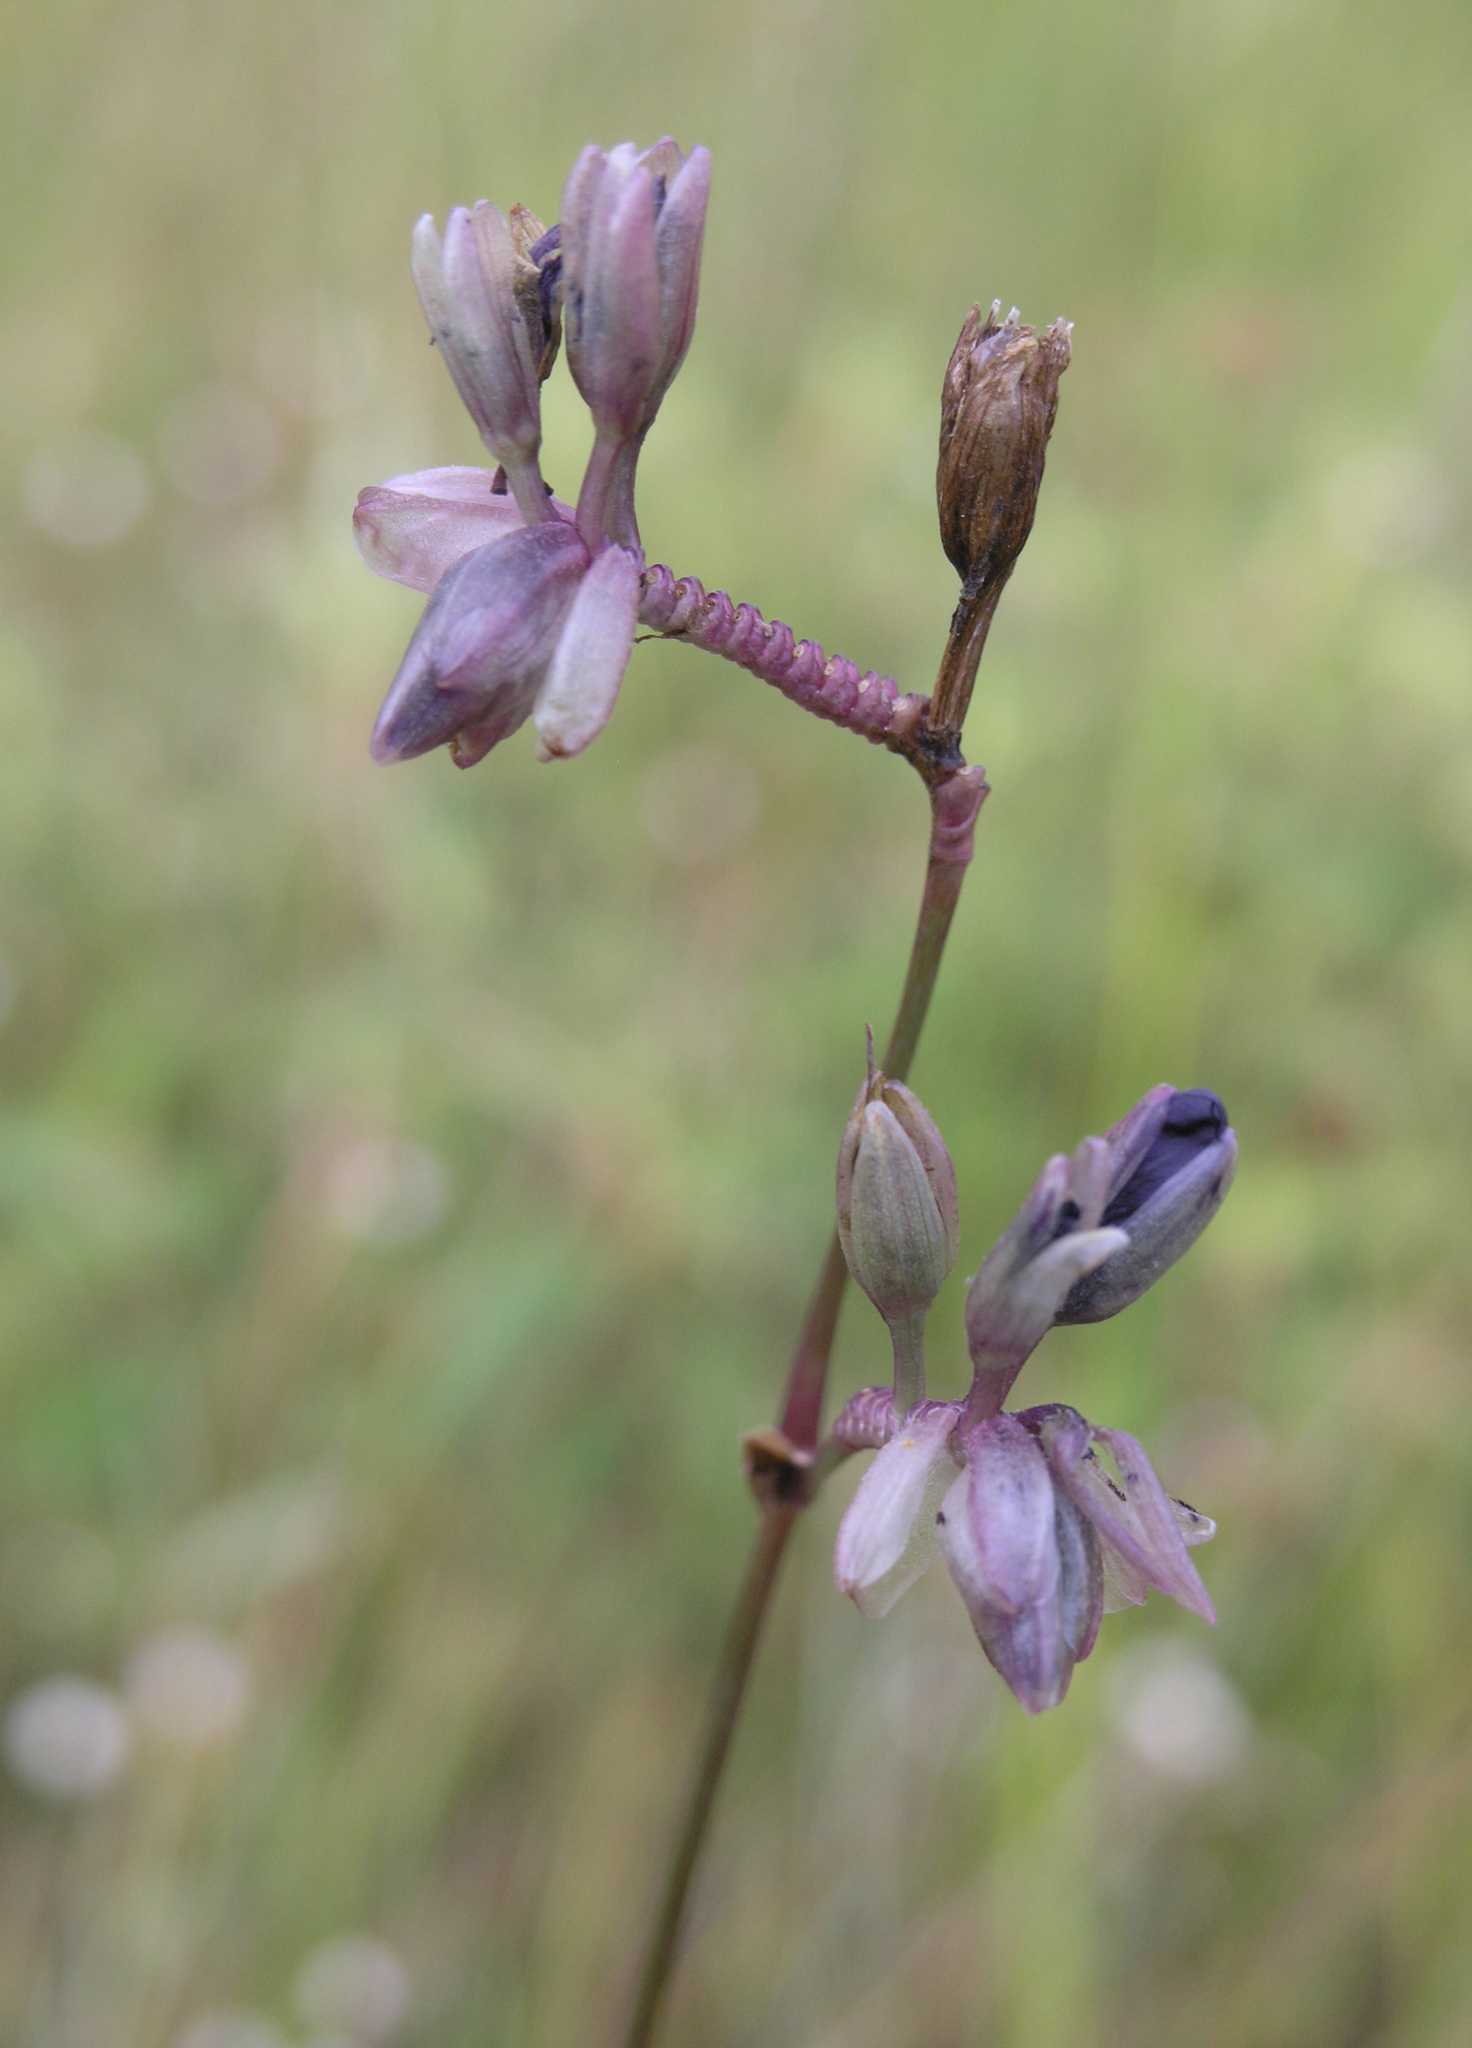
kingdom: Plantae
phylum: Tracheophyta
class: Liliopsida
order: Commelinales
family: Commelinaceae
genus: Murdannia
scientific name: Murdannia macrocarpa
